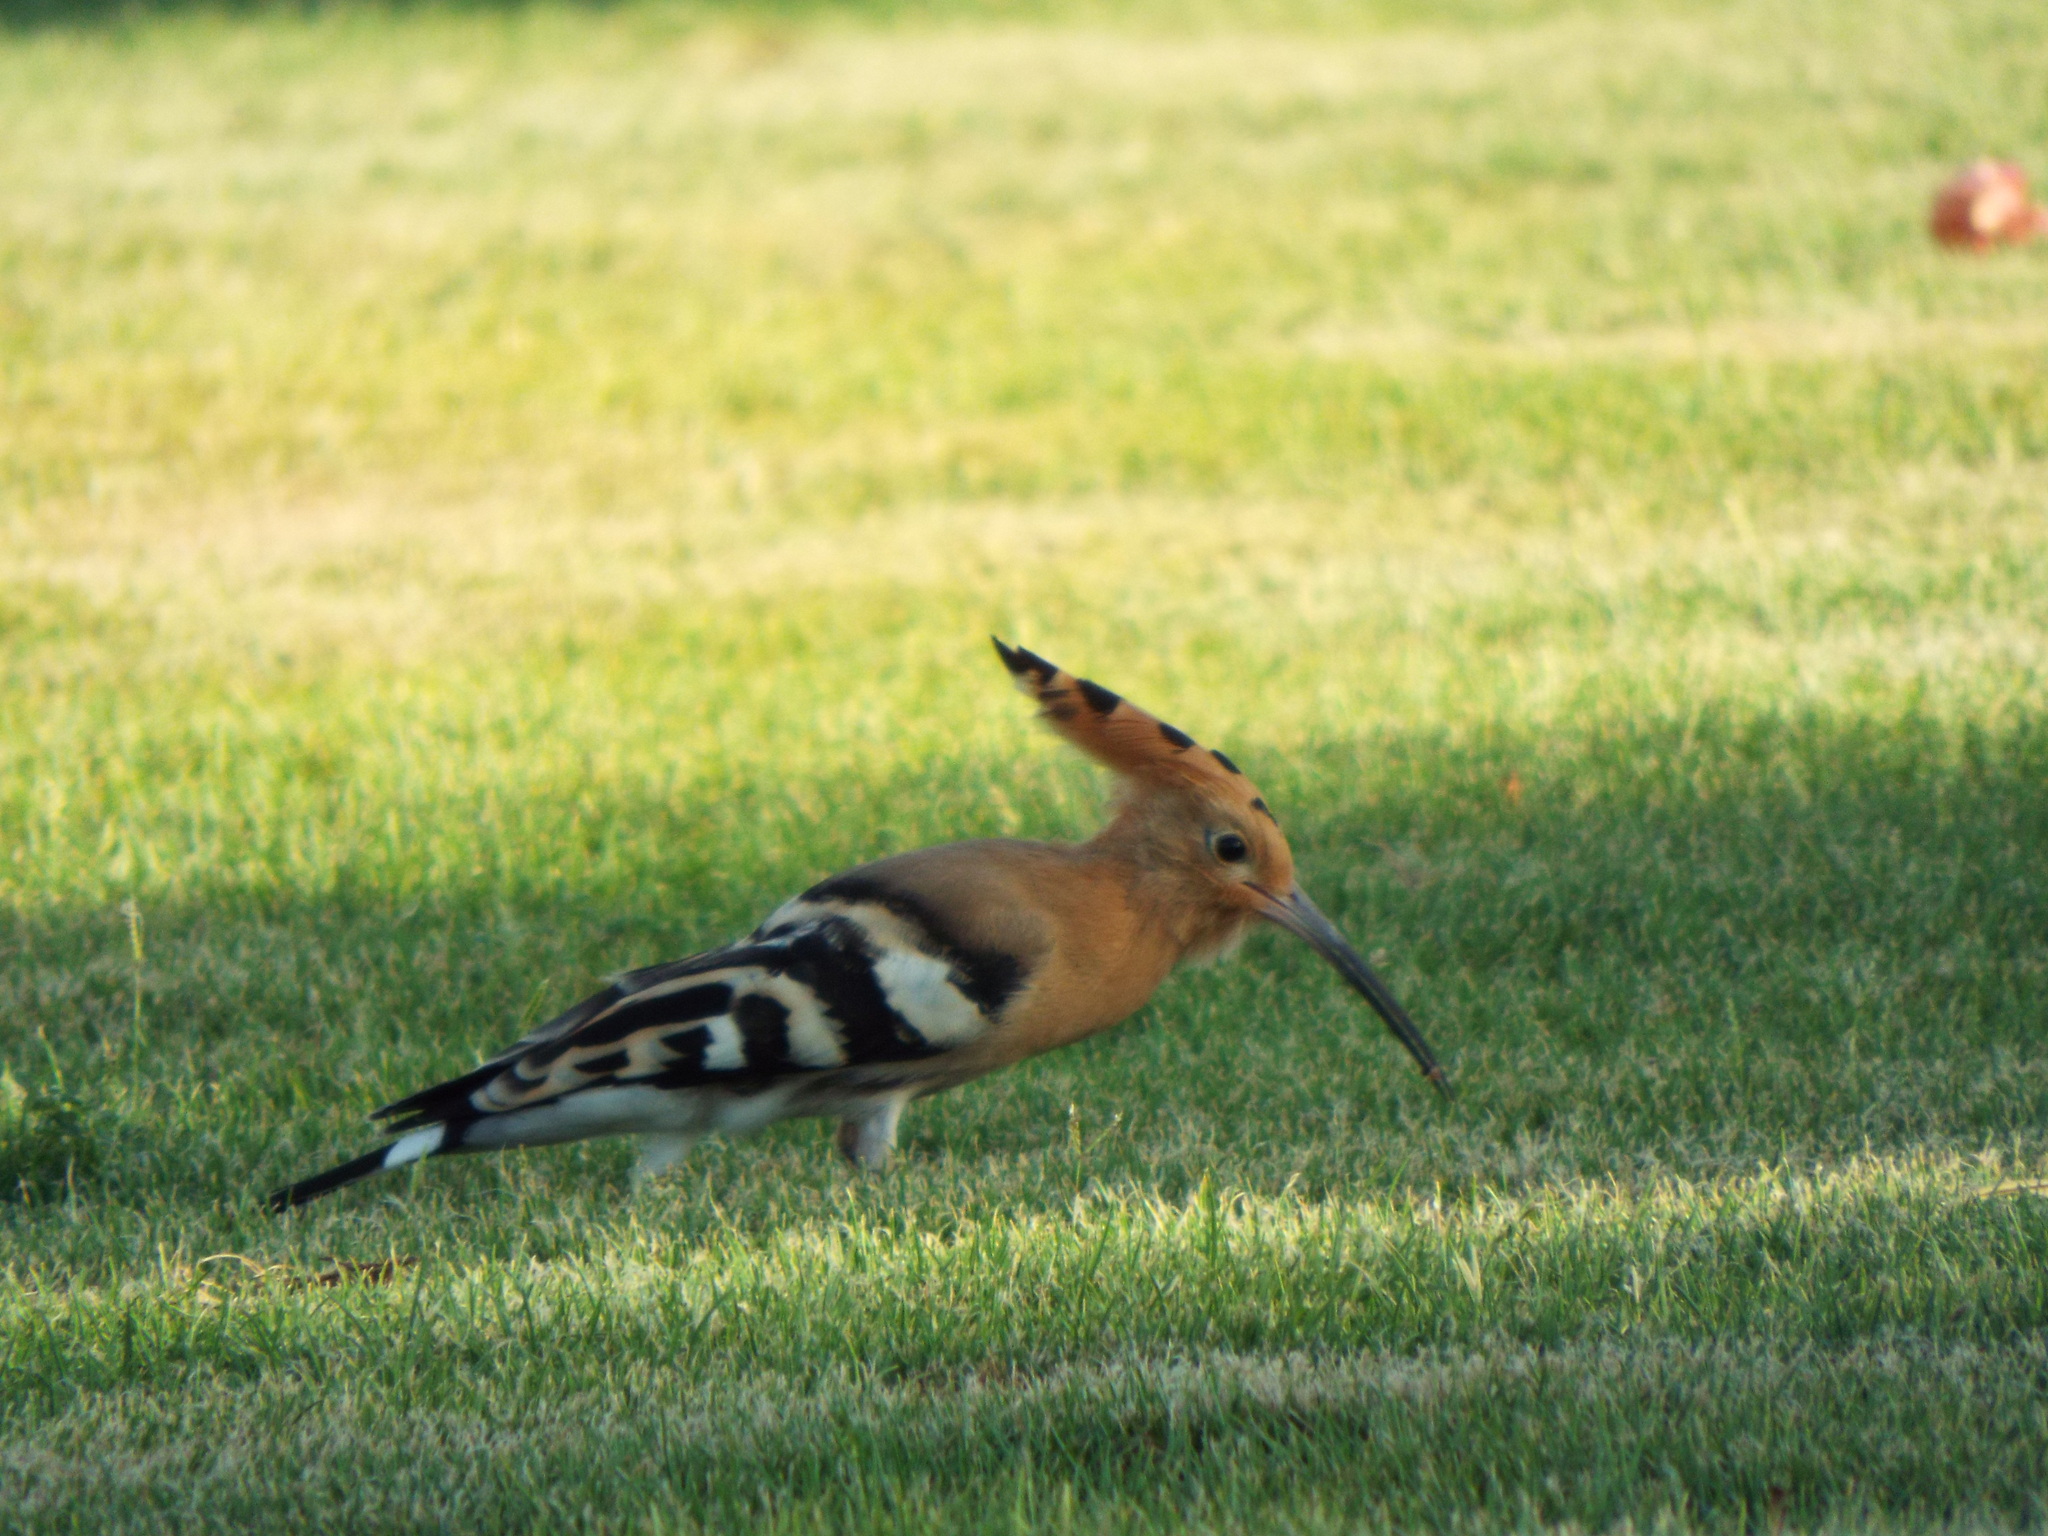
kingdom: Animalia
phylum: Chordata
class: Aves
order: Bucerotiformes
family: Upupidae
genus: Upupa
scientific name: Upupa epops
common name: Eurasian hoopoe
